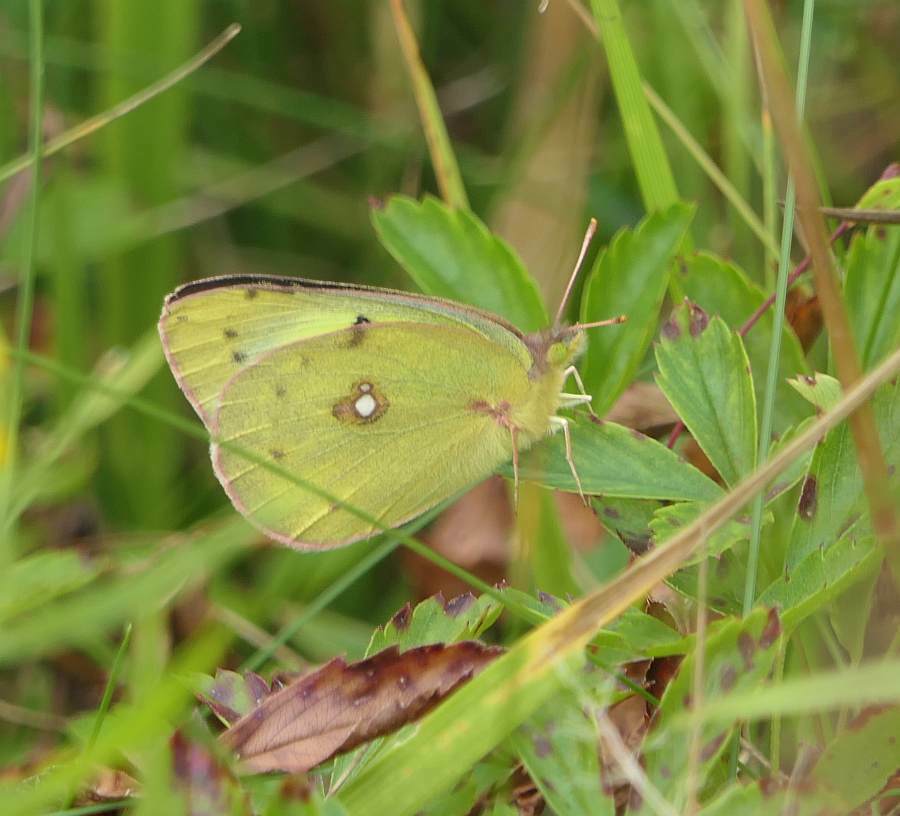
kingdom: Animalia
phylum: Arthropoda
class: Insecta
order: Lepidoptera
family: Pieridae
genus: Colias
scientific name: Colias philodice
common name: Clouded sulphur
